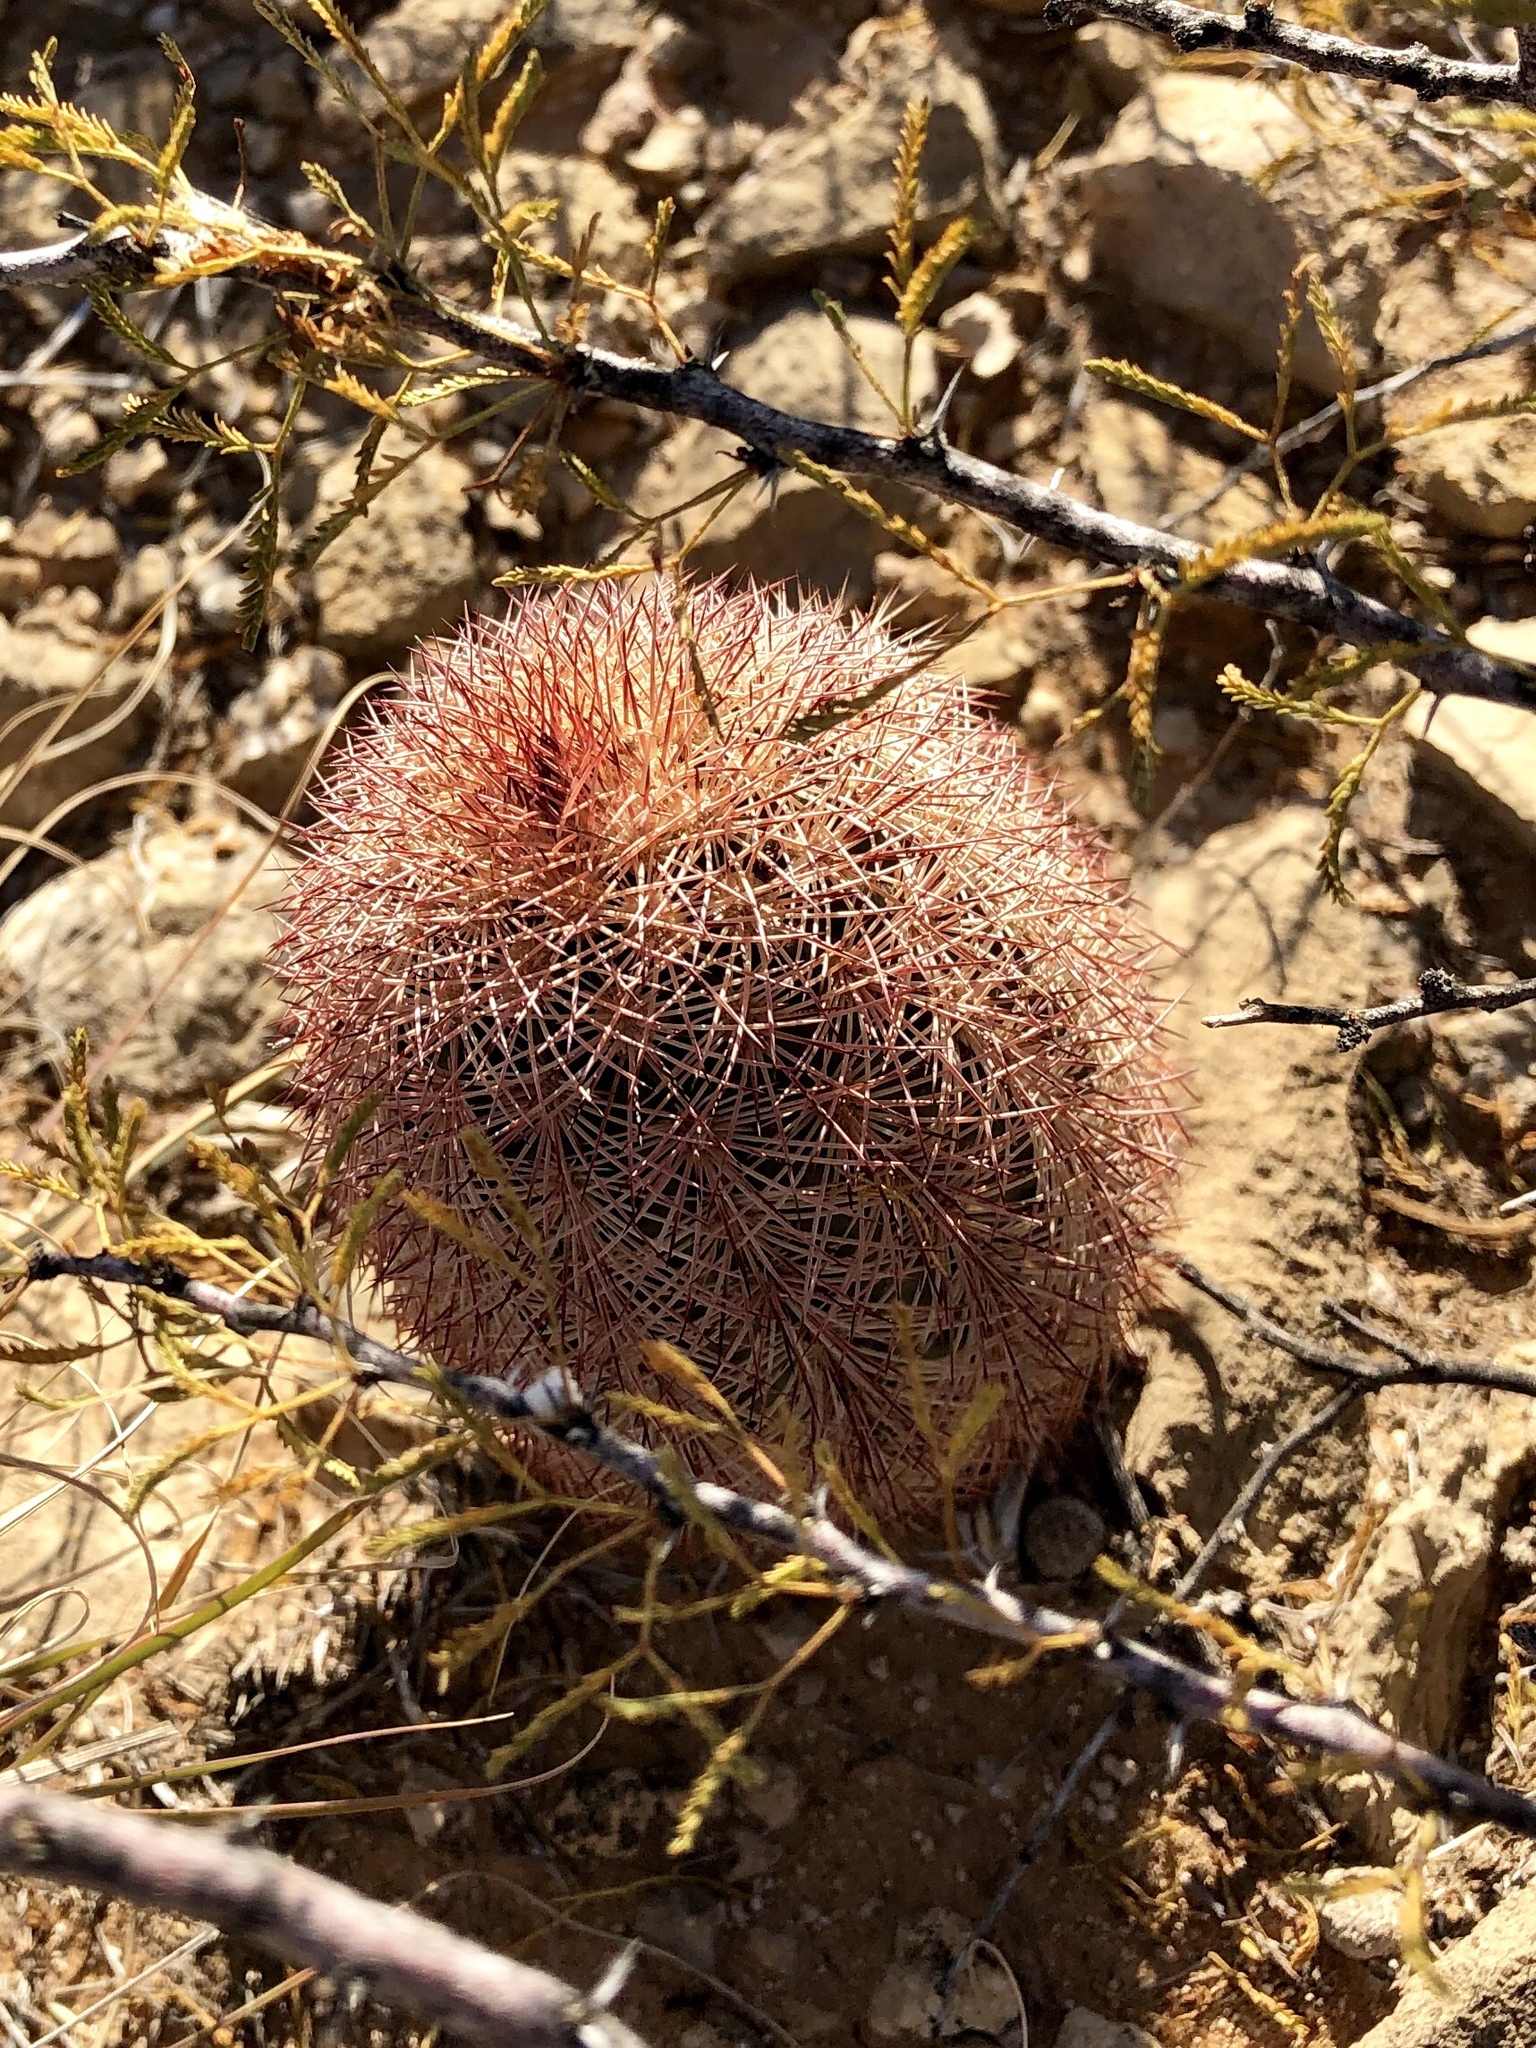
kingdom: Plantae
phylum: Tracheophyta
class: Magnoliopsida
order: Caryophyllales
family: Cactaceae
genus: Echinocereus
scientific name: Echinocereus dasyacanthus
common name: Spiny hedgehog cactus
